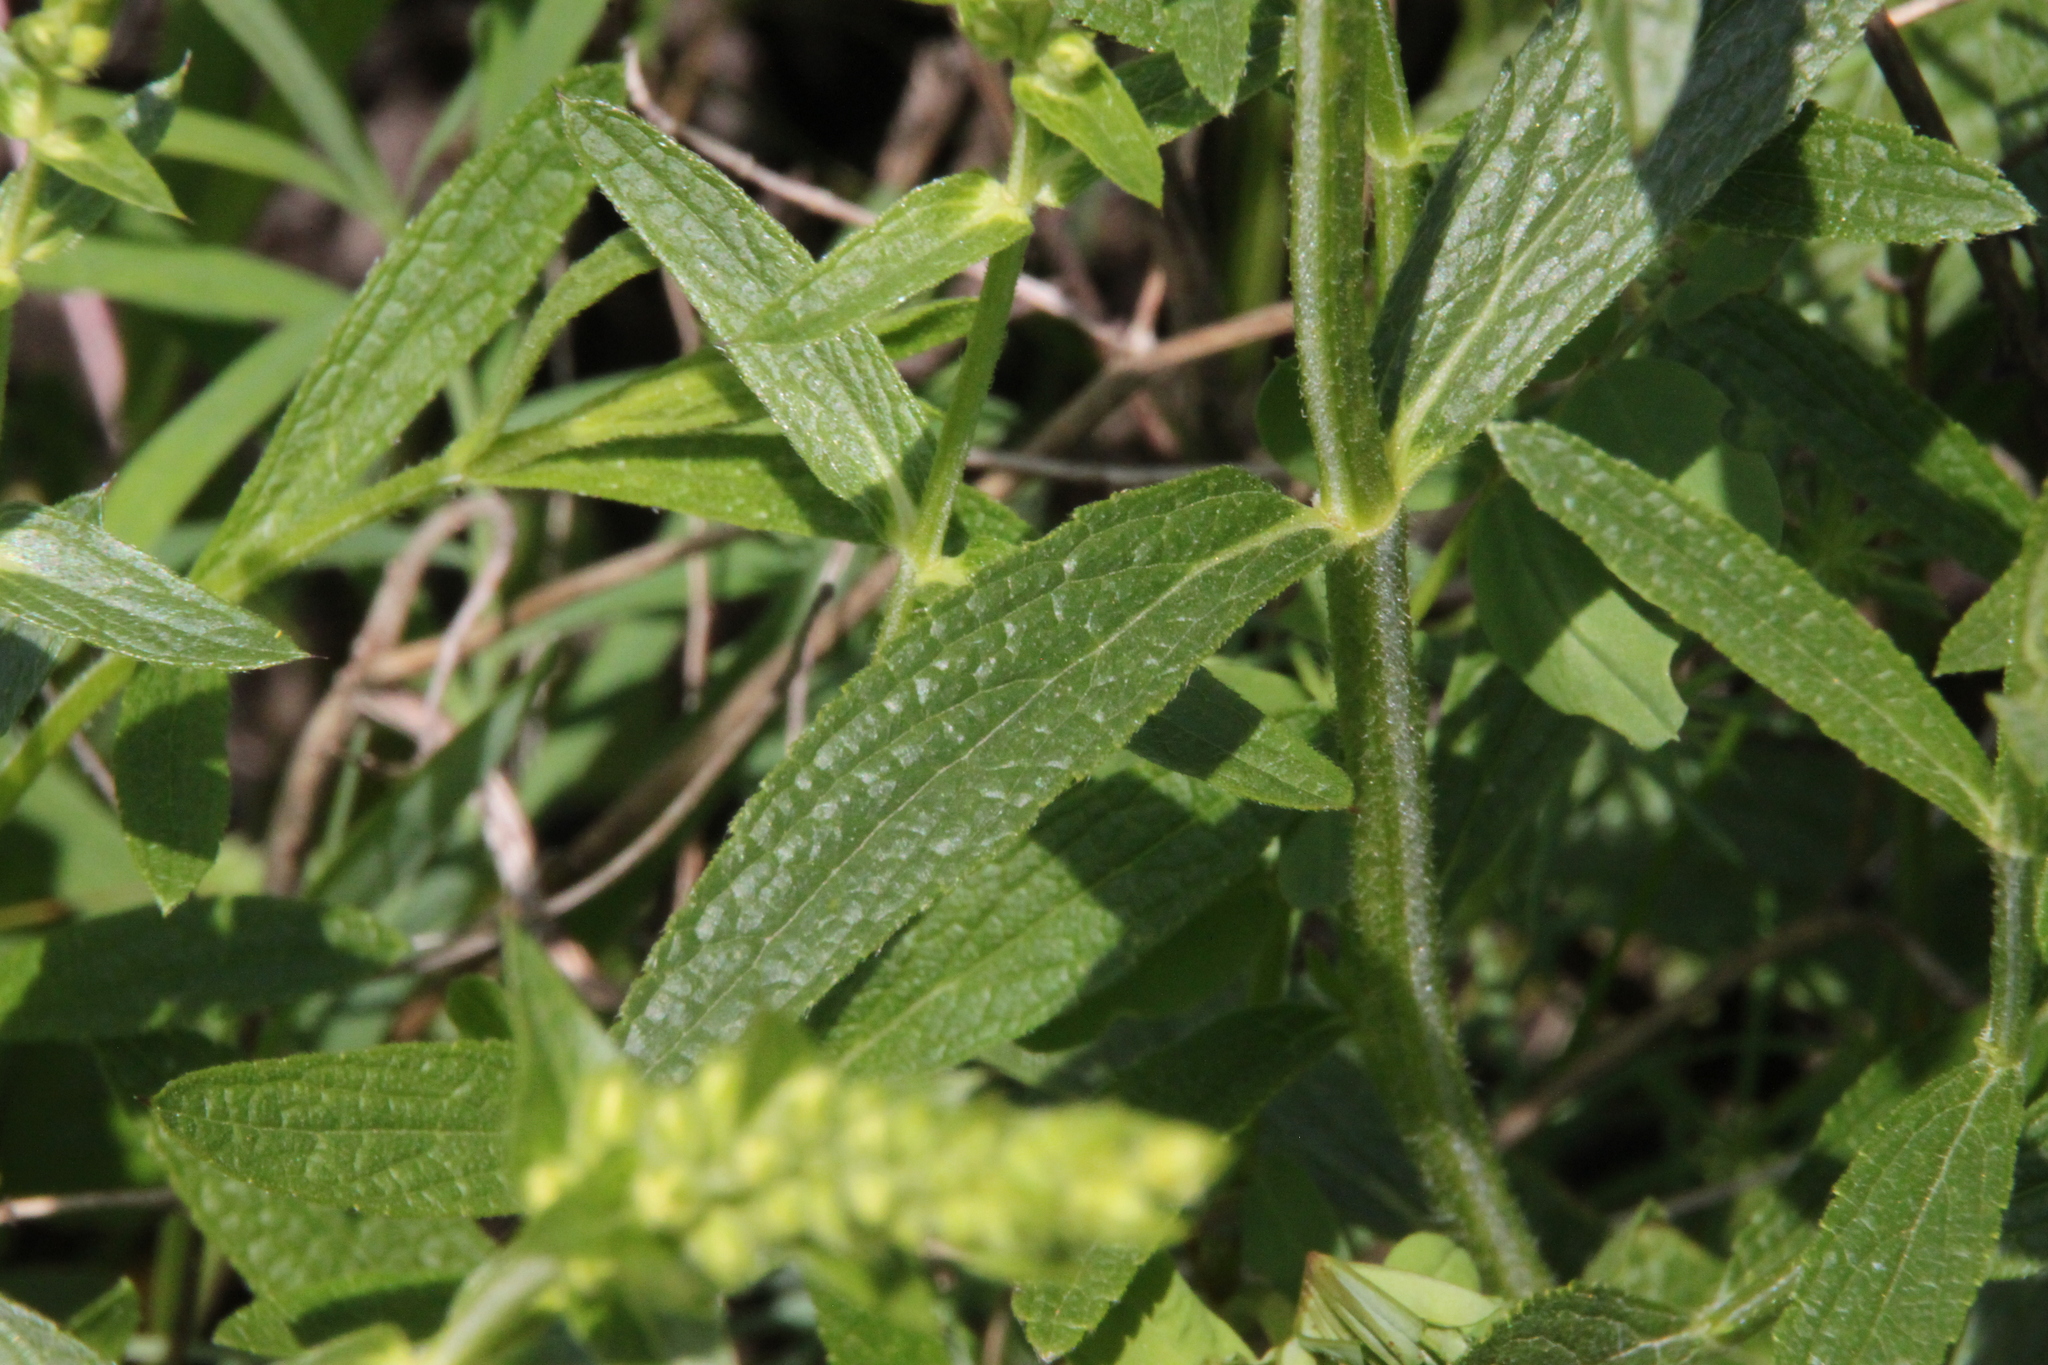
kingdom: Plantae
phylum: Tracheophyta
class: Magnoliopsida
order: Lamiales
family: Lamiaceae
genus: Stachys
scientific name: Stachys recta
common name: Perennial yellow-woundwort
